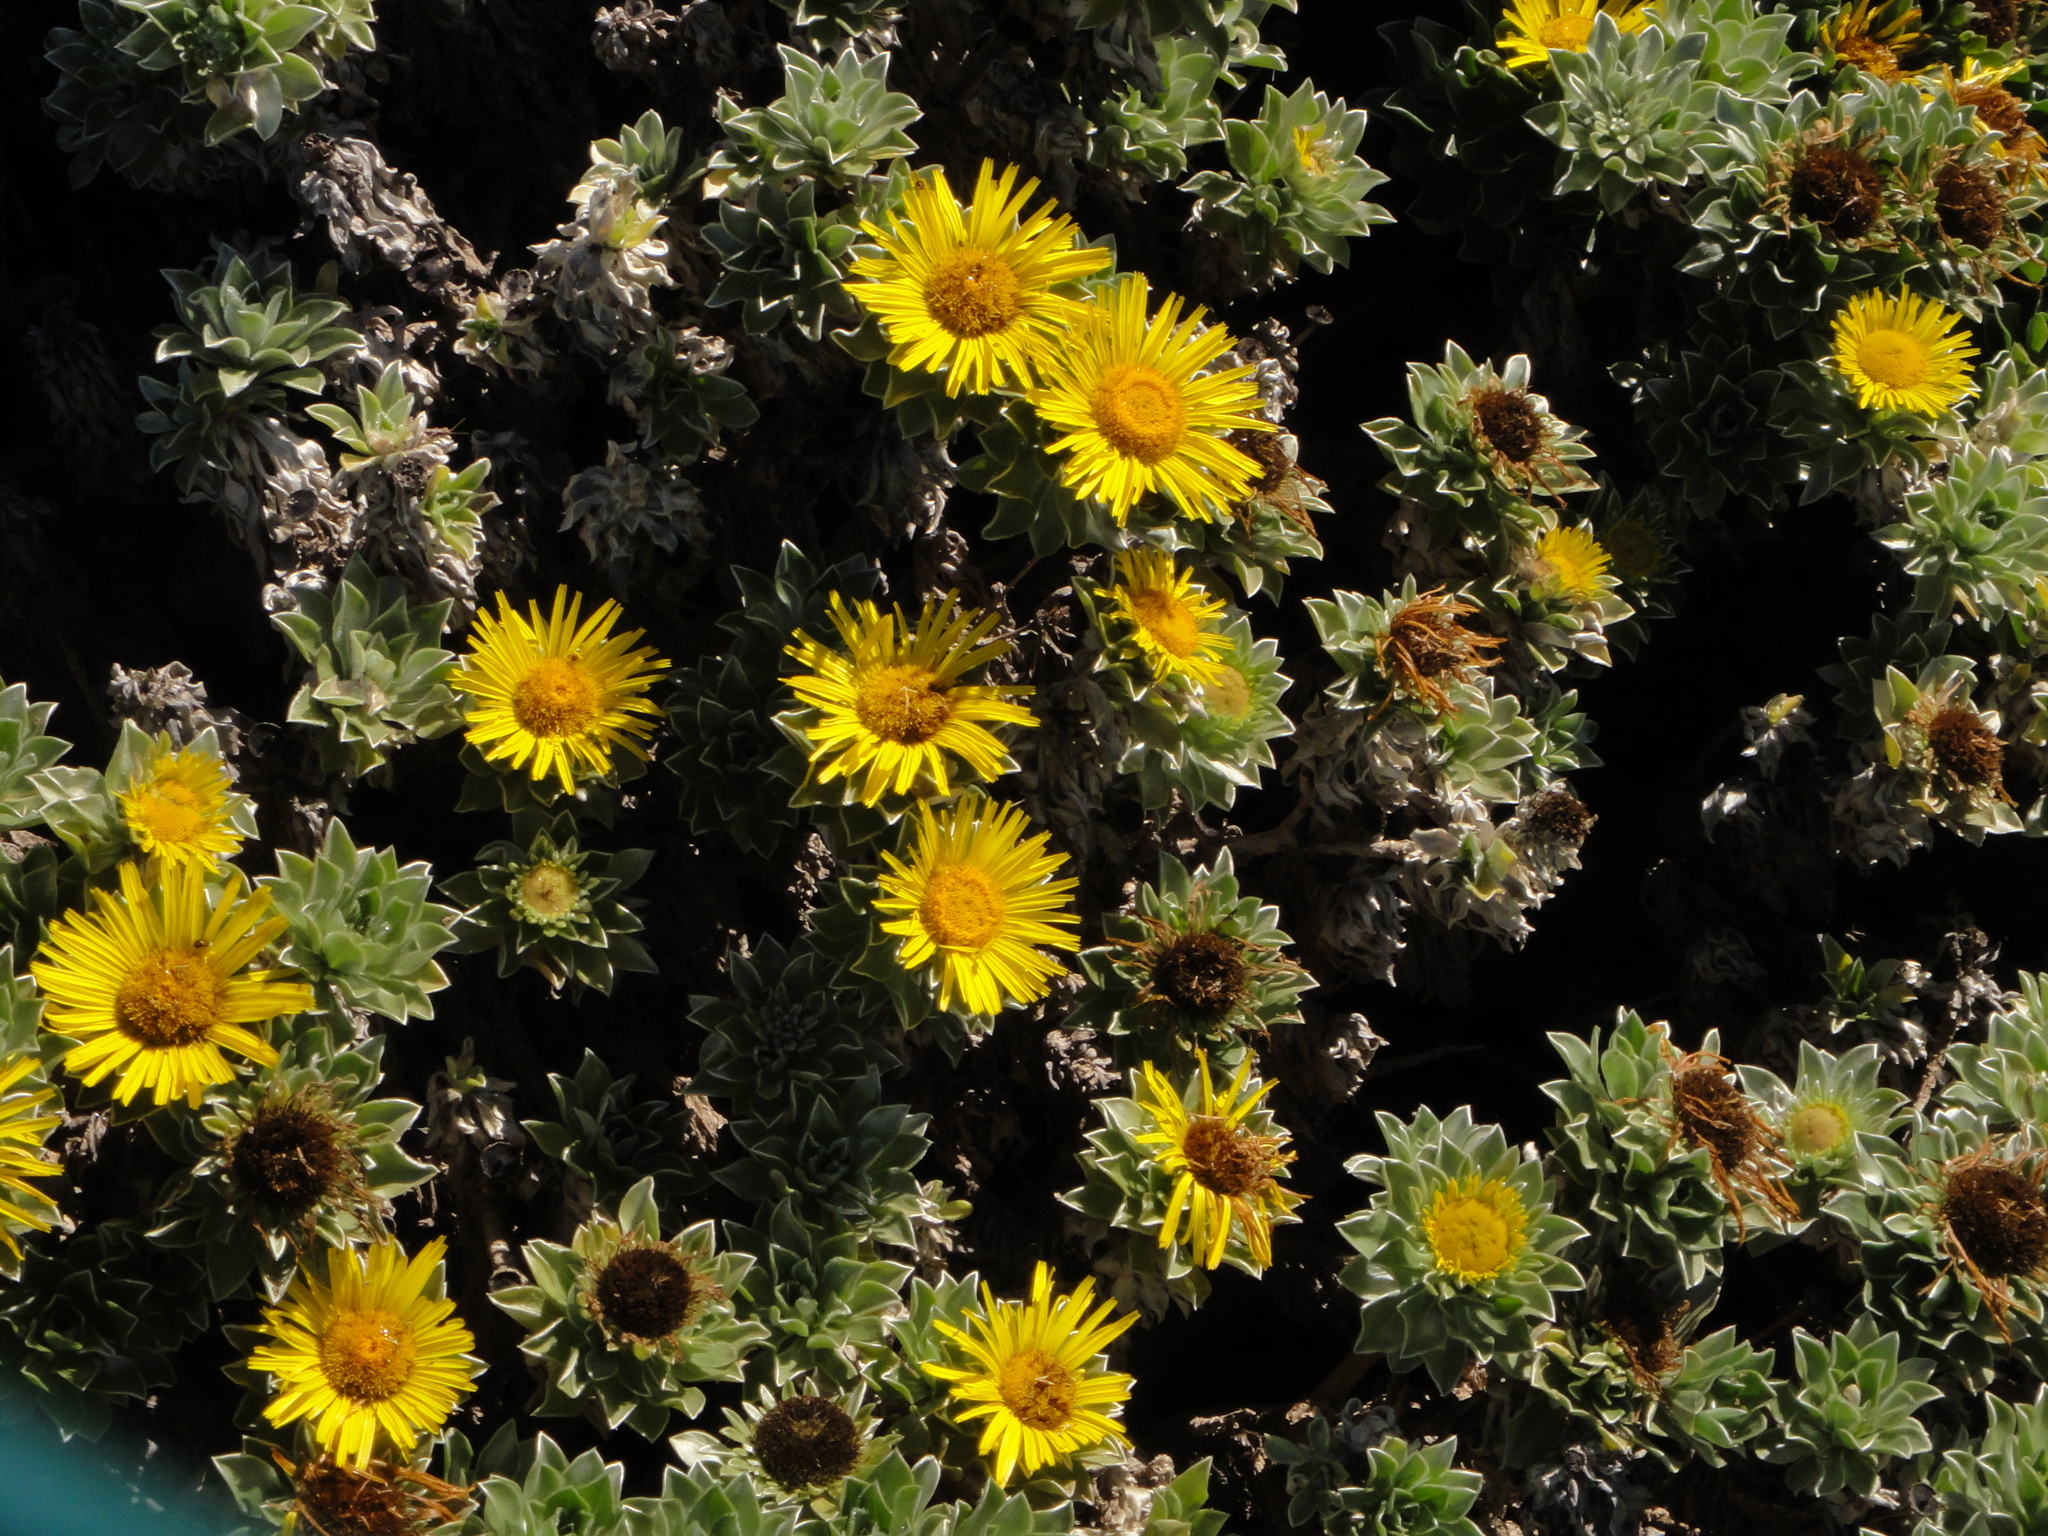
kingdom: Plantae
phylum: Tracheophyta
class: Magnoliopsida
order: Asterales
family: Asteraceae
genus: Asteriscus
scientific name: Asteriscus sericeus
